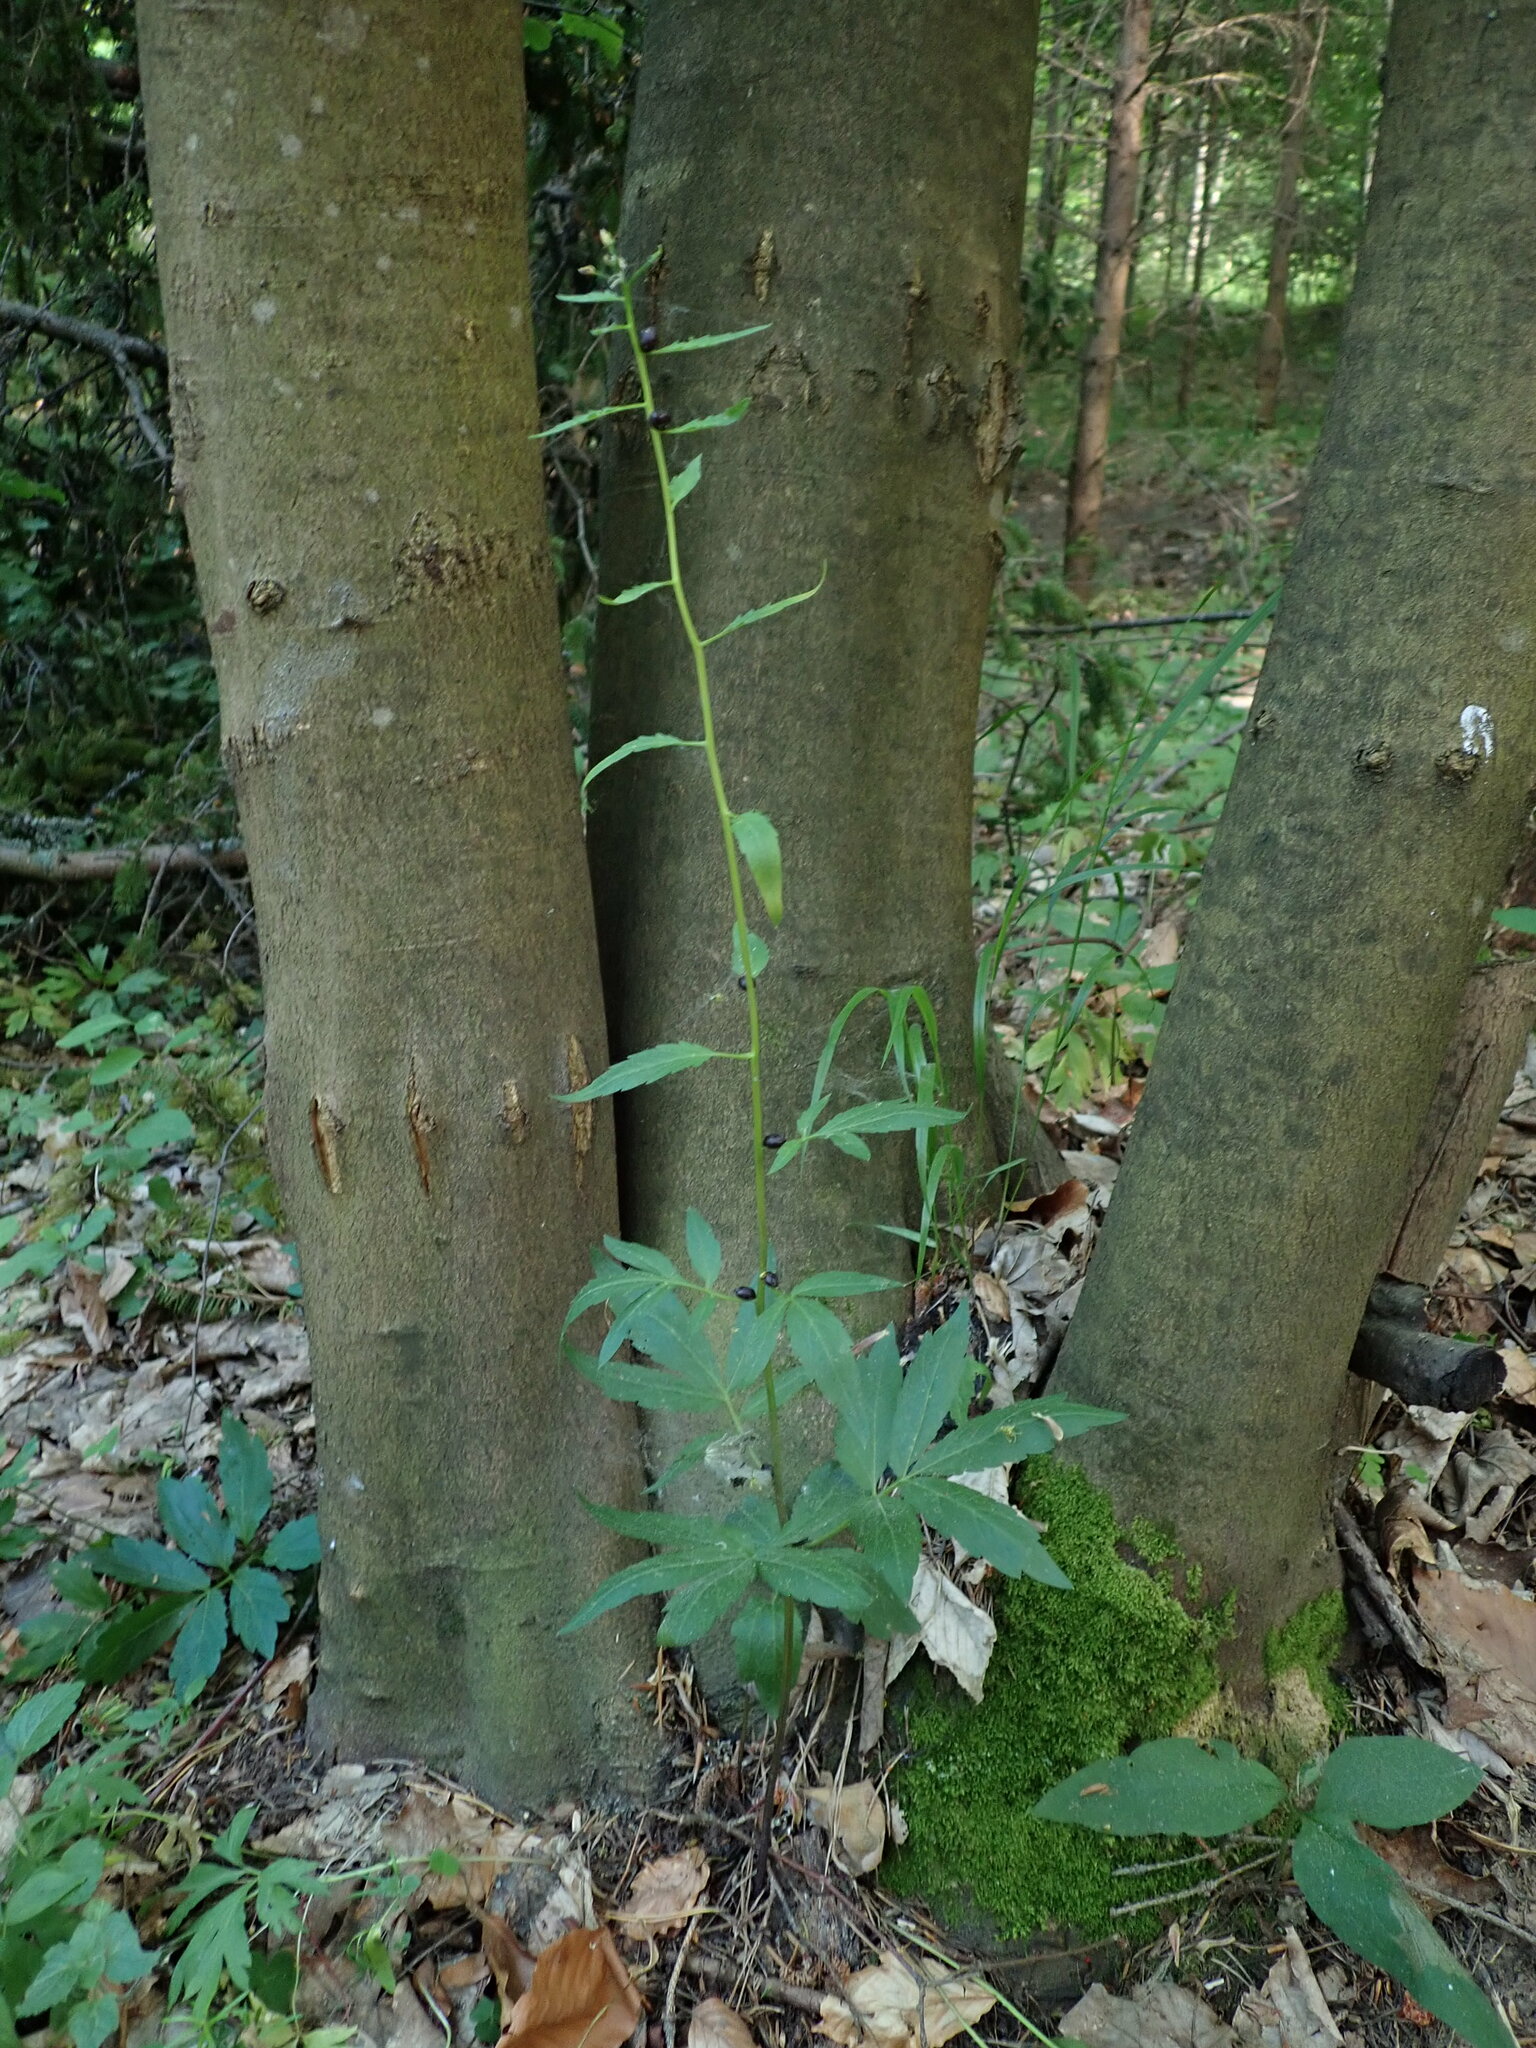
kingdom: Plantae
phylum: Tracheophyta
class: Magnoliopsida
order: Brassicales
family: Brassicaceae
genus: Cardamine
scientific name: Cardamine bulbifera
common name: Coralroot bittercress
